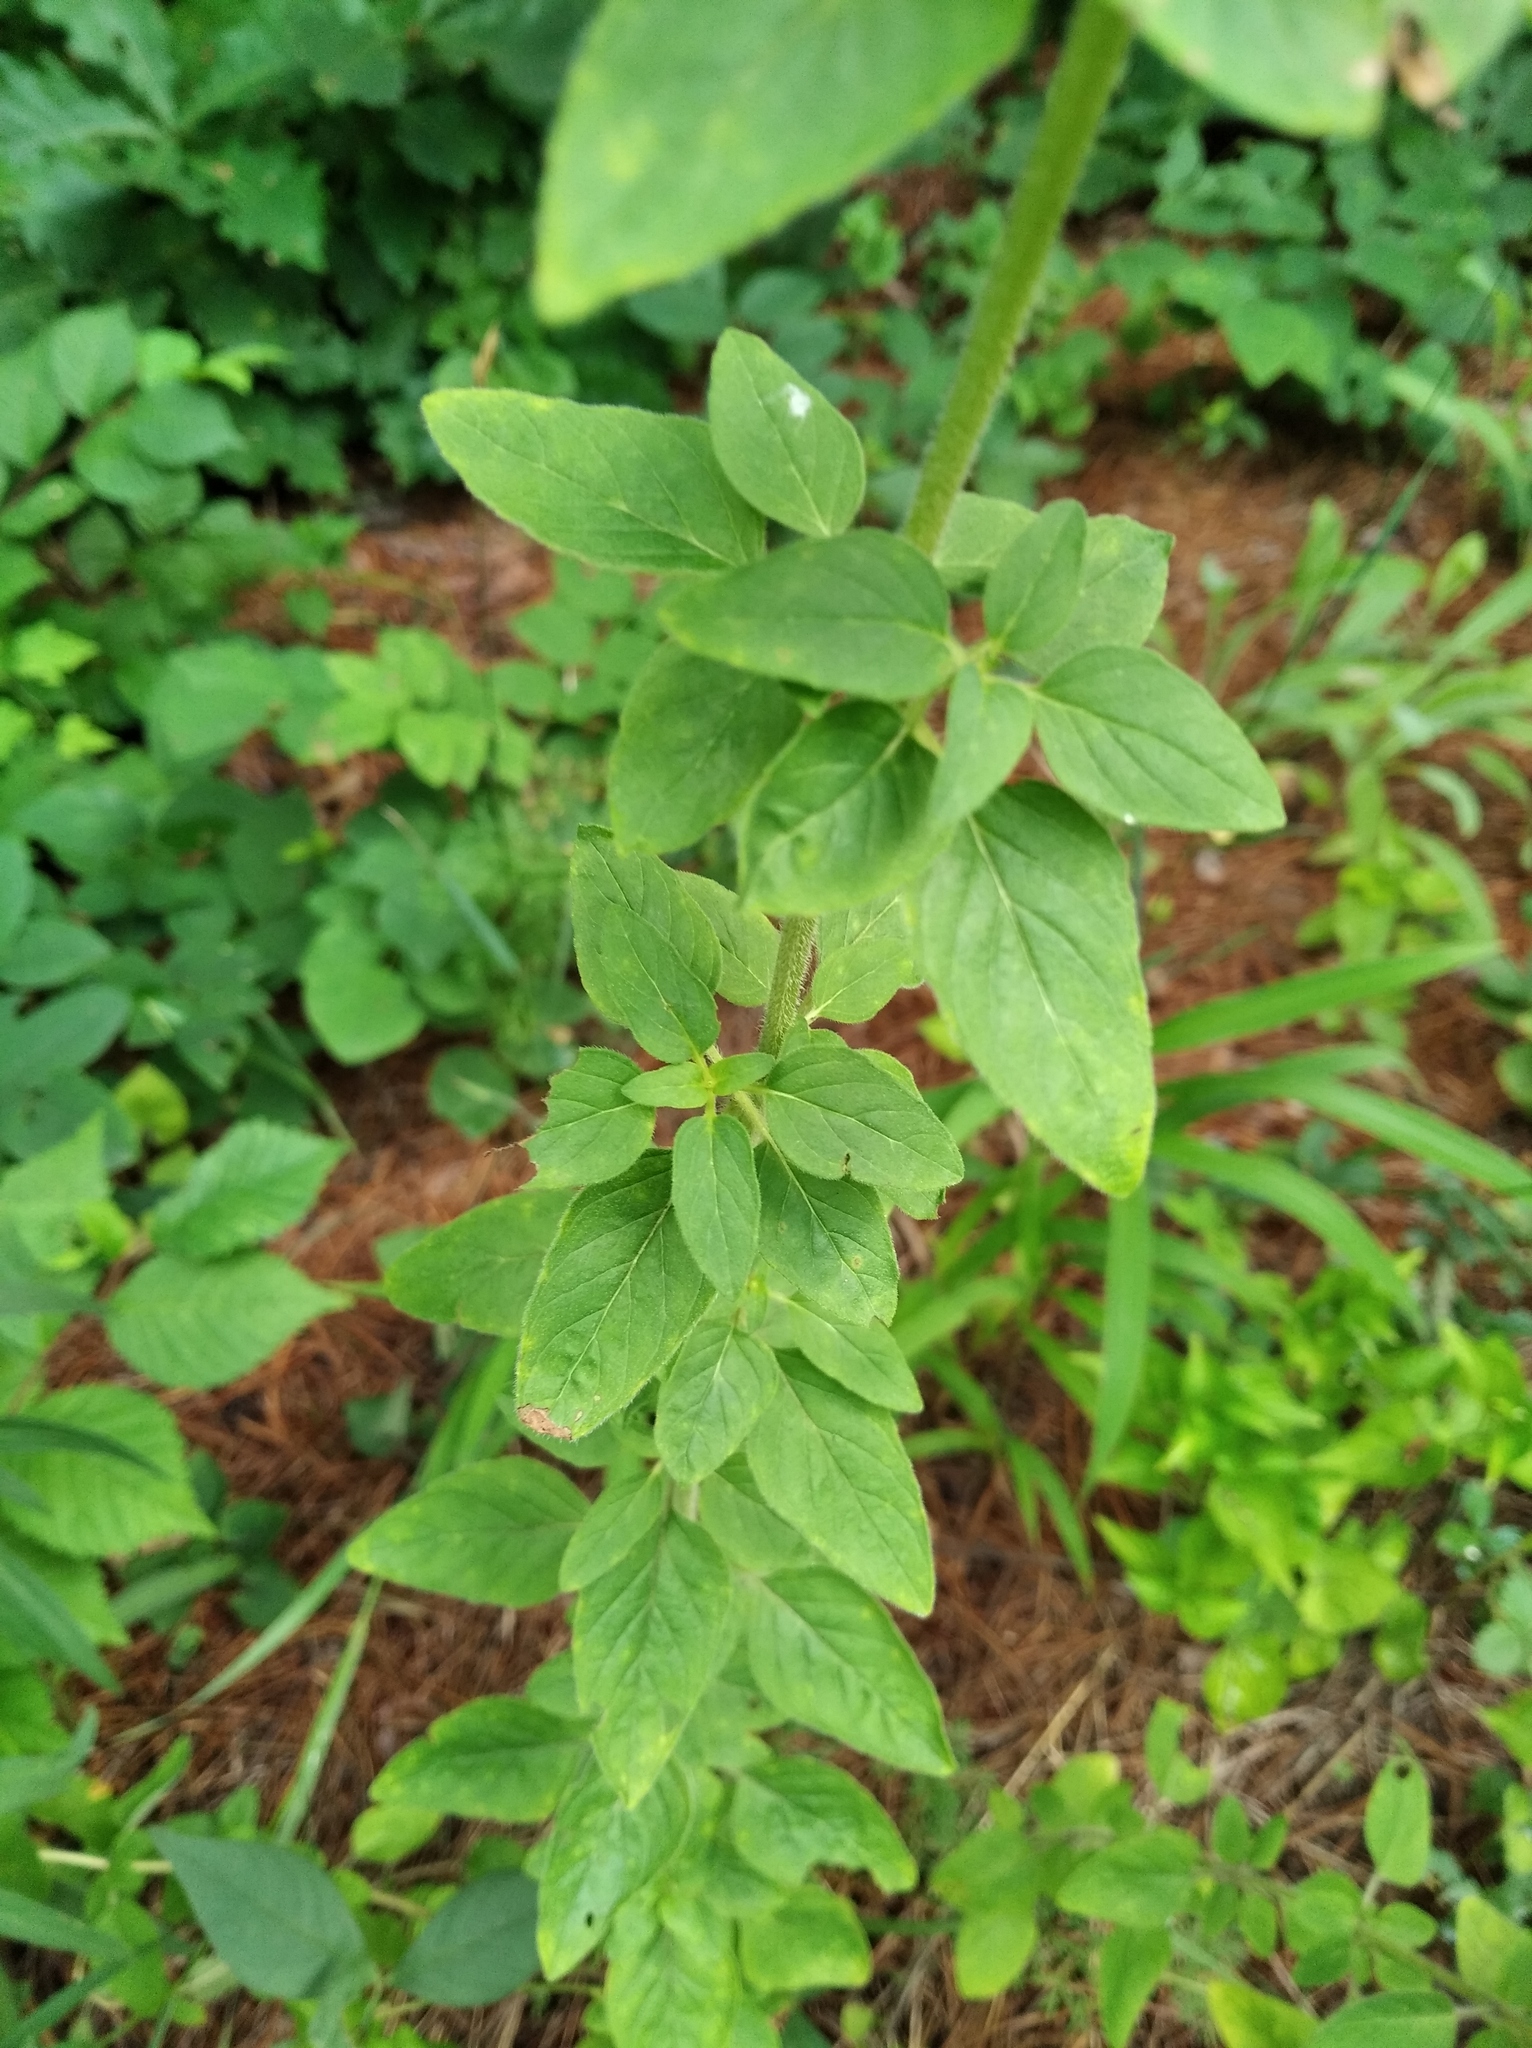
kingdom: Plantae
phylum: Tracheophyta
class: Magnoliopsida
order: Lamiales
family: Lamiaceae
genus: Origanum
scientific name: Origanum vulgare
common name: Wild marjoram
